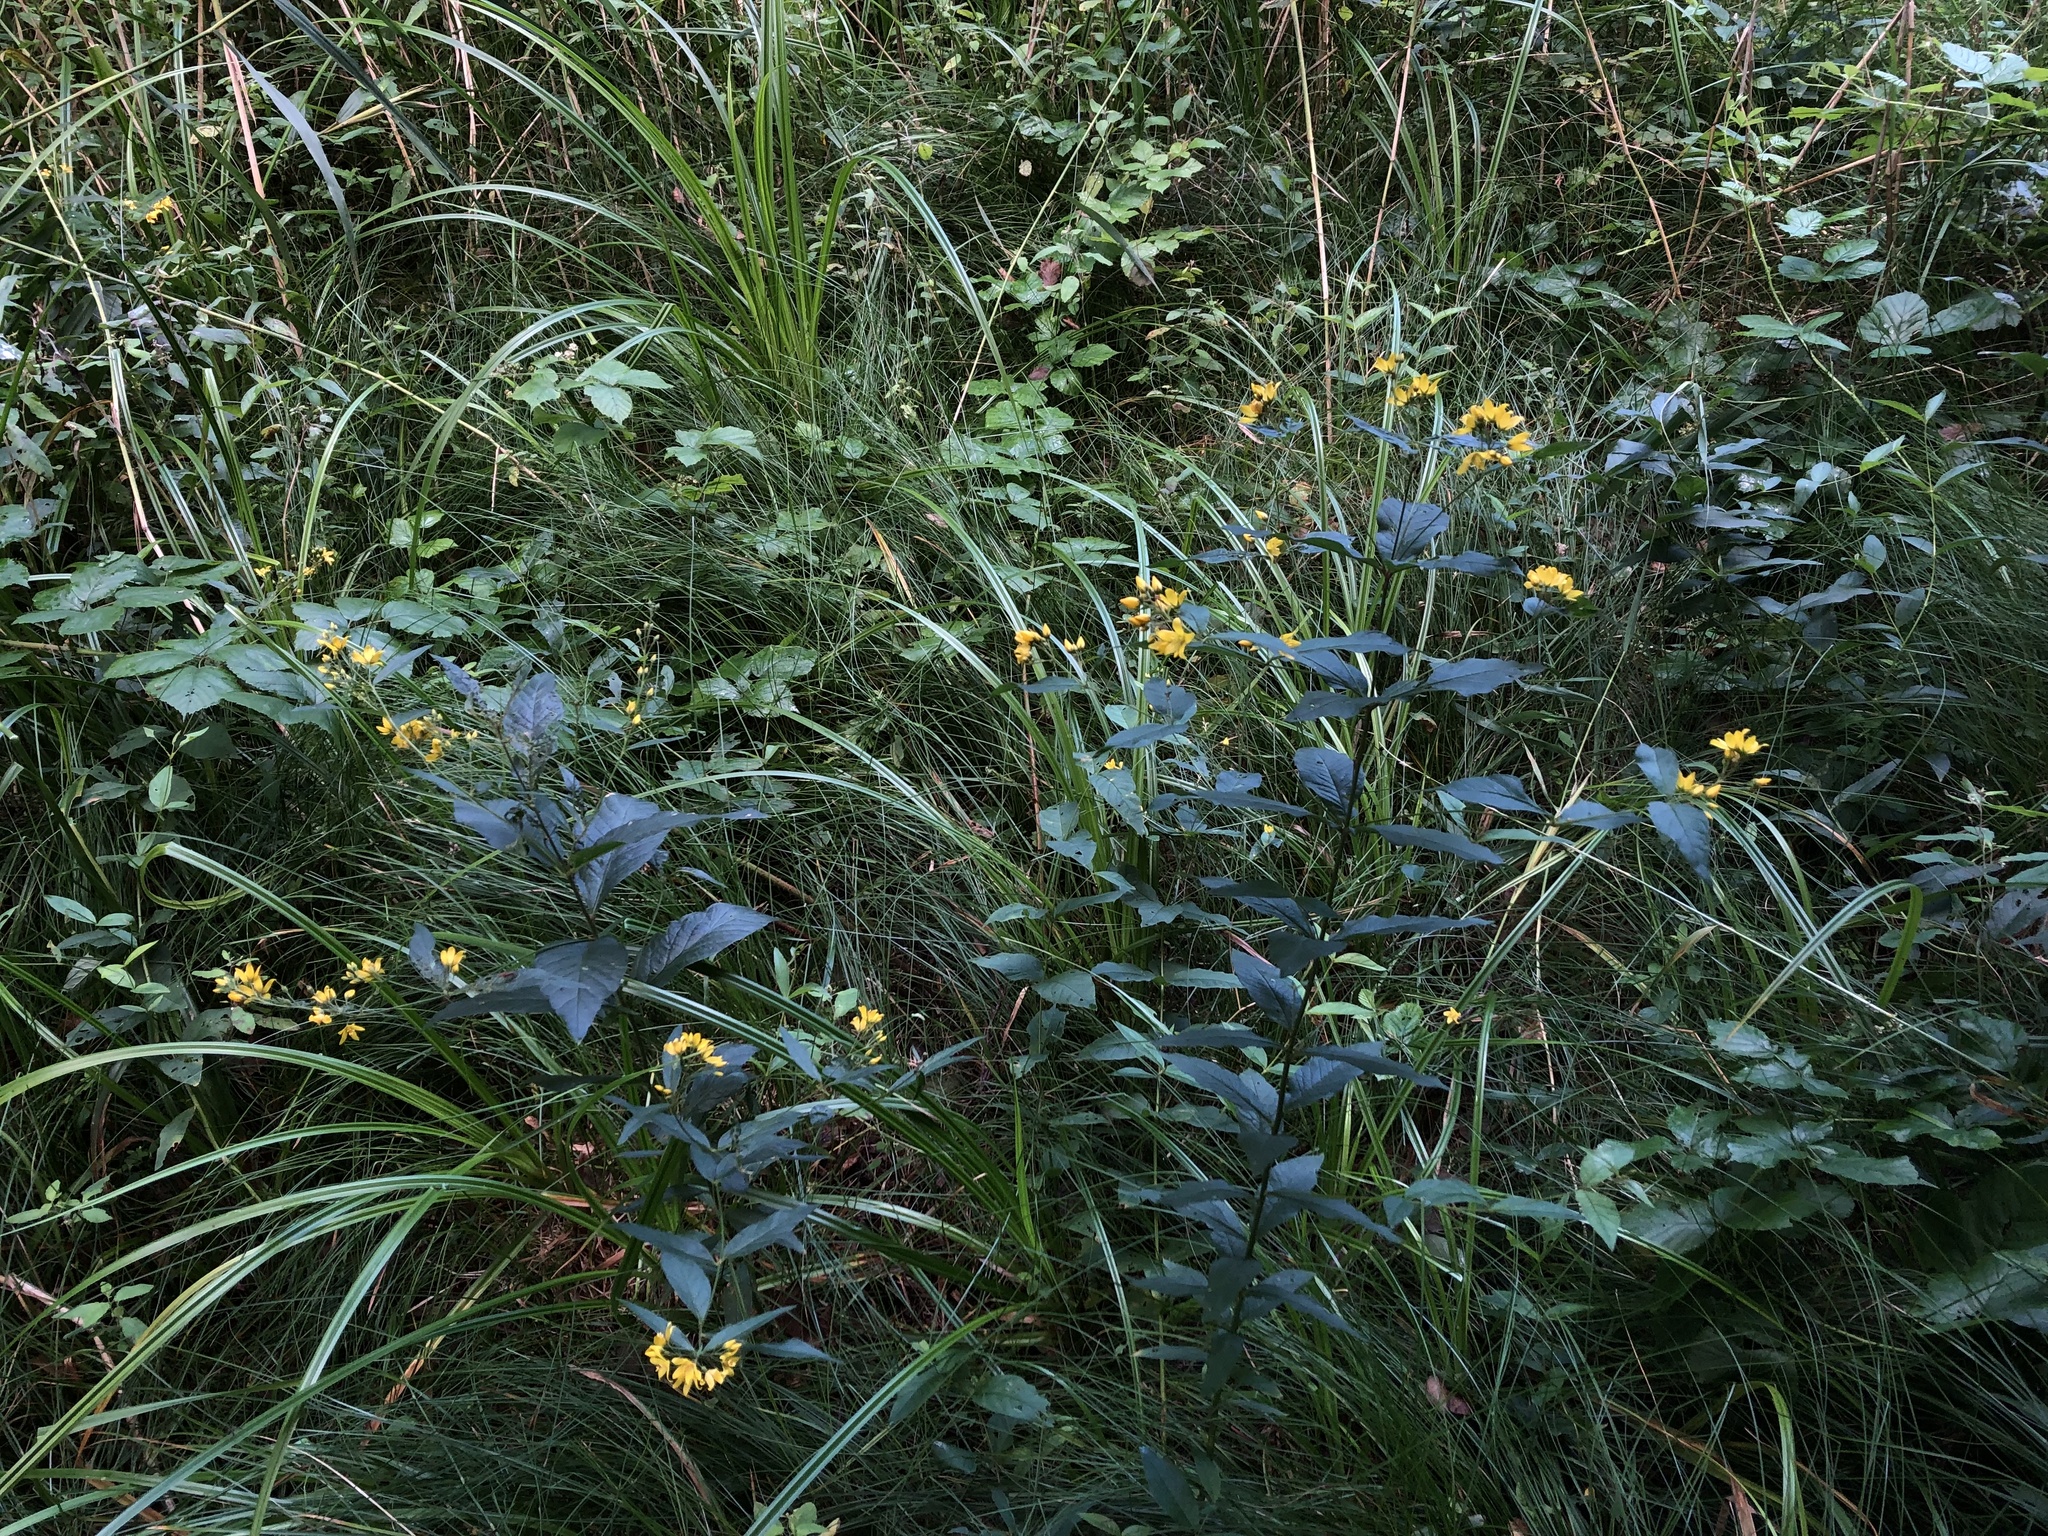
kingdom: Plantae
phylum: Tracheophyta
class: Magnoliopsida
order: Ericales
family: Primulaceae
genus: Lysimachia
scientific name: Lysimachia vulgaris
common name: Yellow loosestrife
